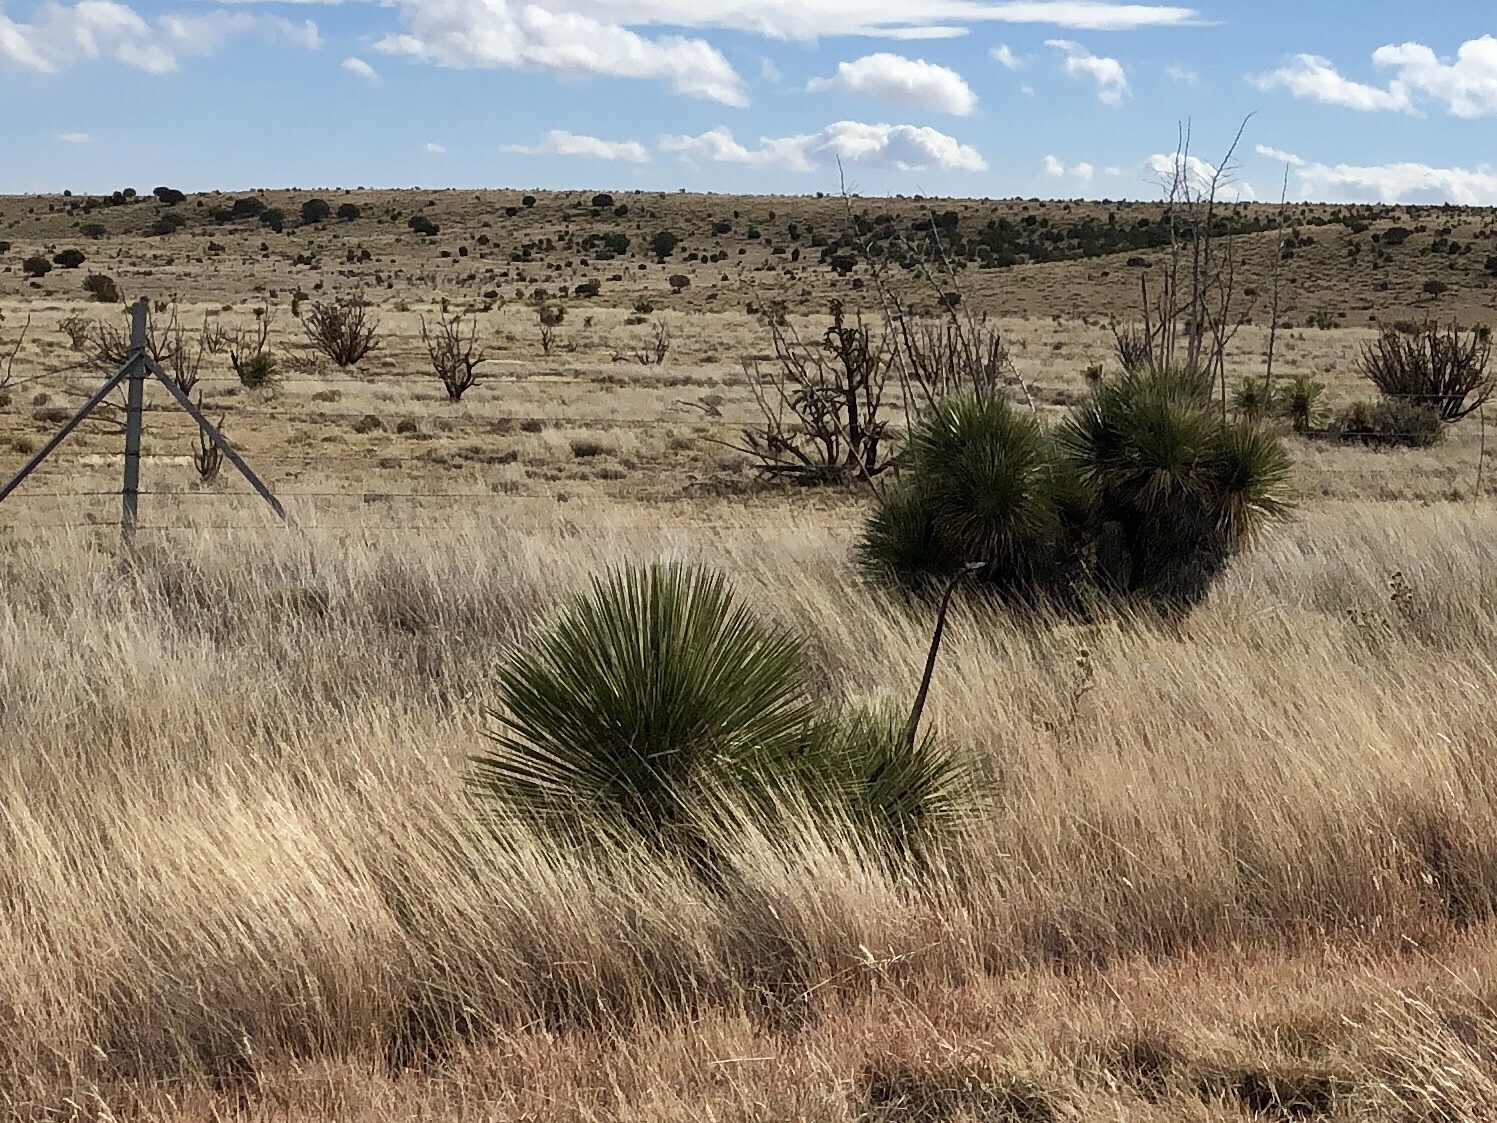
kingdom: Plantae
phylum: Tracheophyta
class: Liliopsida
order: Asparagales
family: Asparagaceae
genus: Yucca
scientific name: Yucca elata
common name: Palmella
